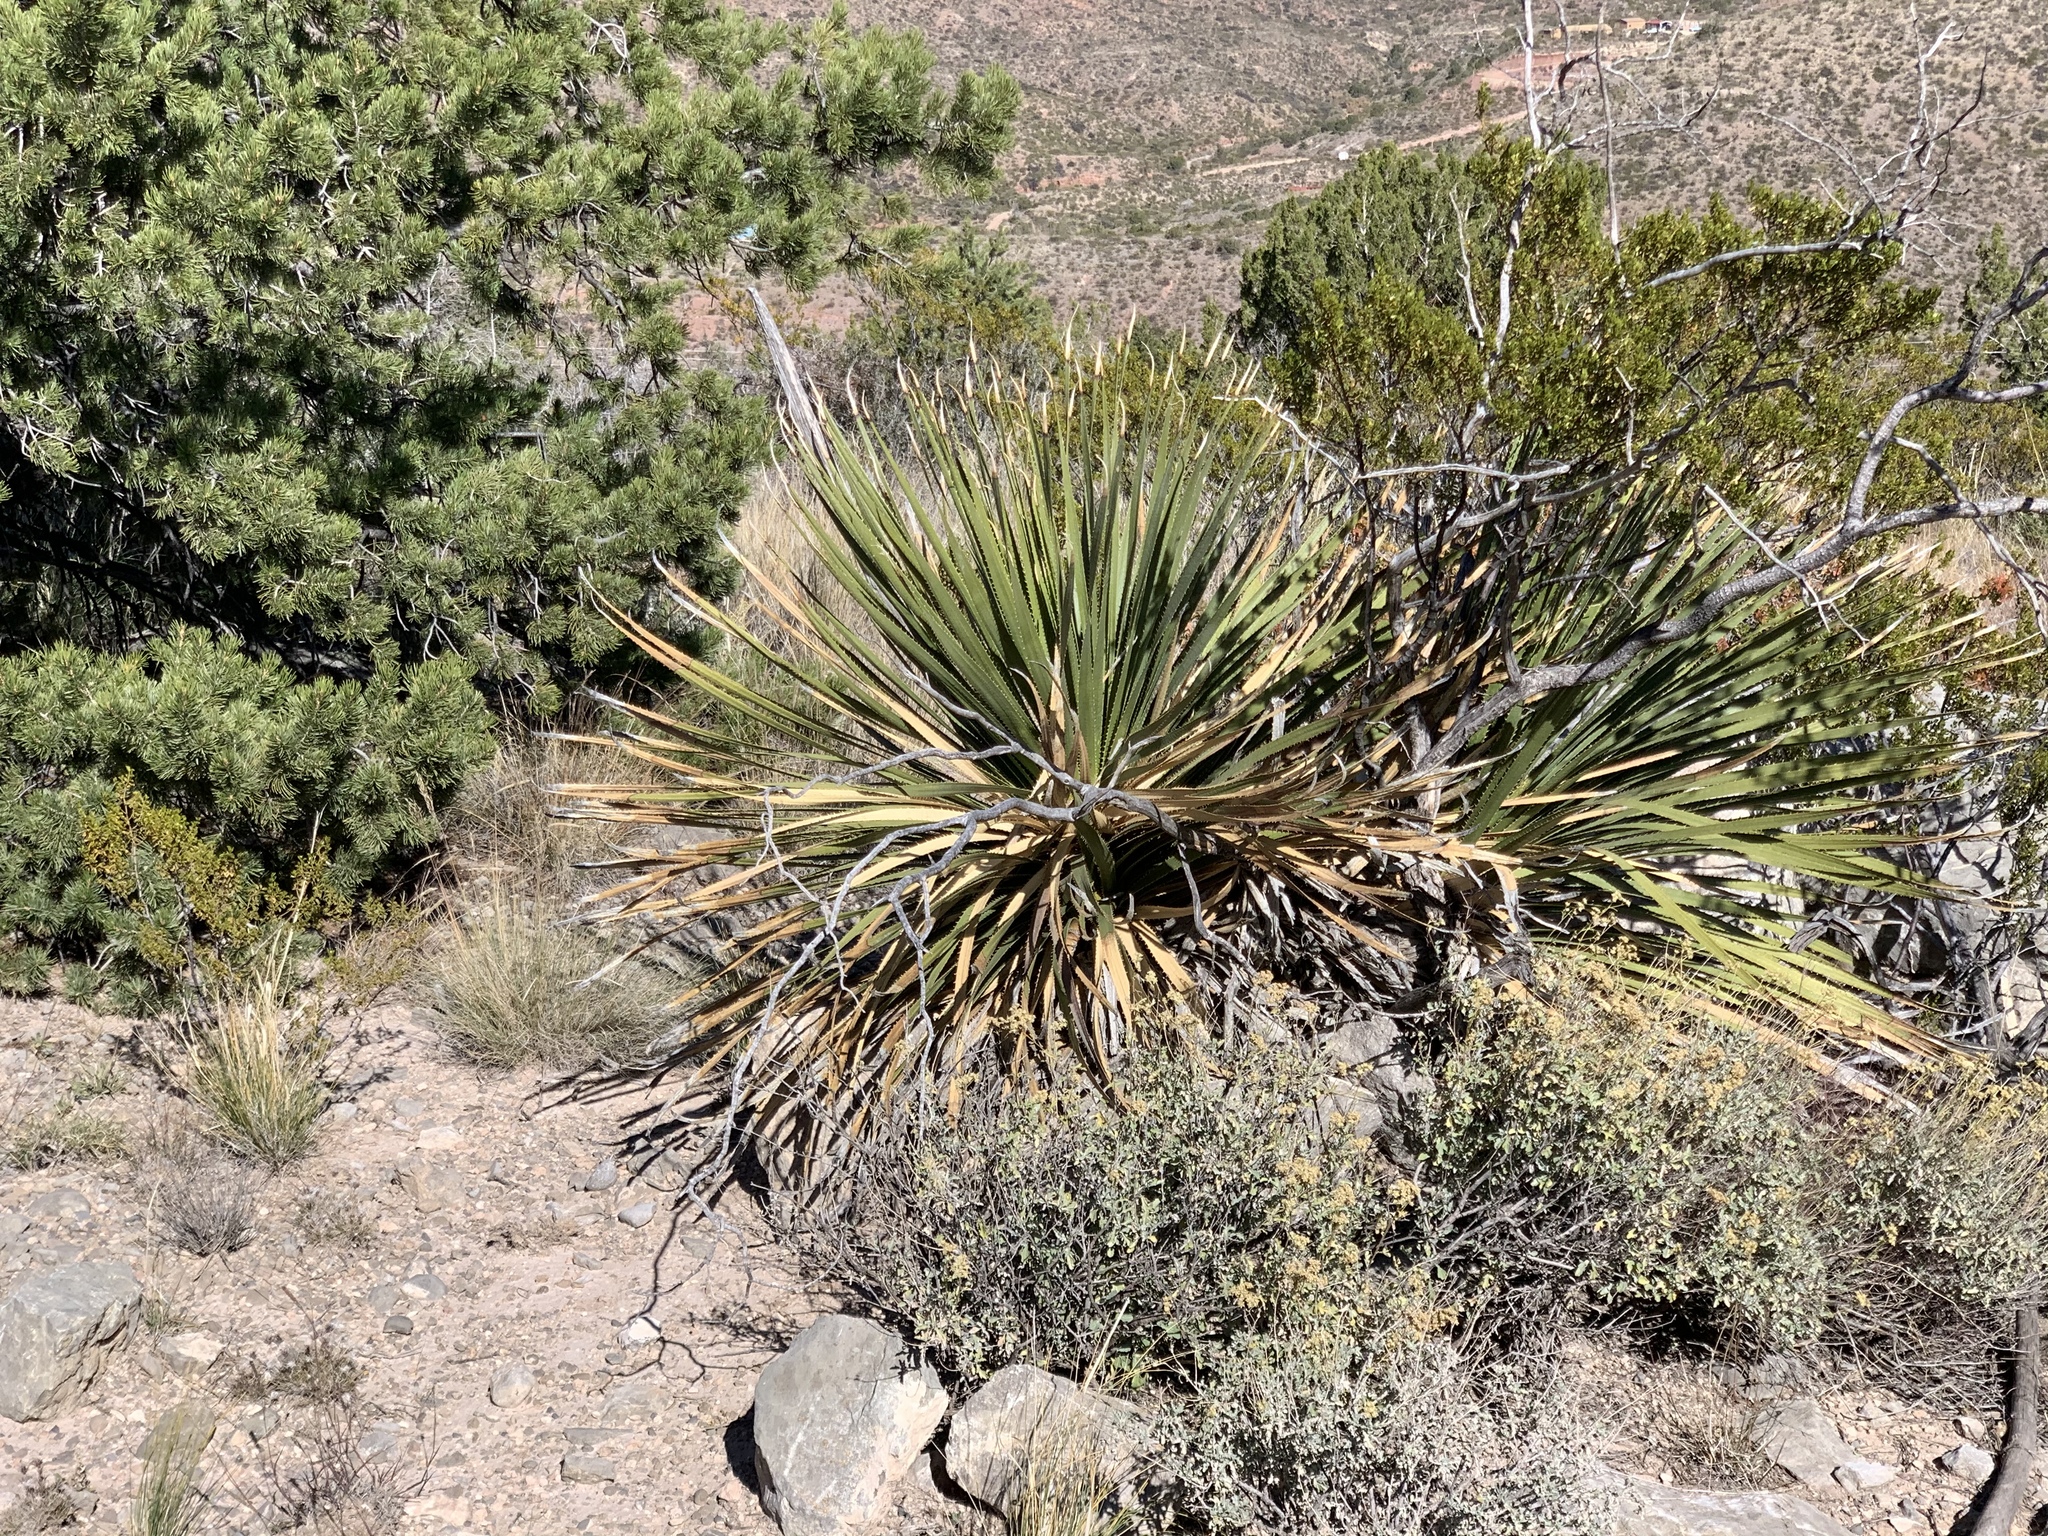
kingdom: Plantae
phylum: Tracheophyta
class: Liliopsida
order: Asparagales
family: Asparagaceae
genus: Dasylirion
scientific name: Dasylirion wheeleri
